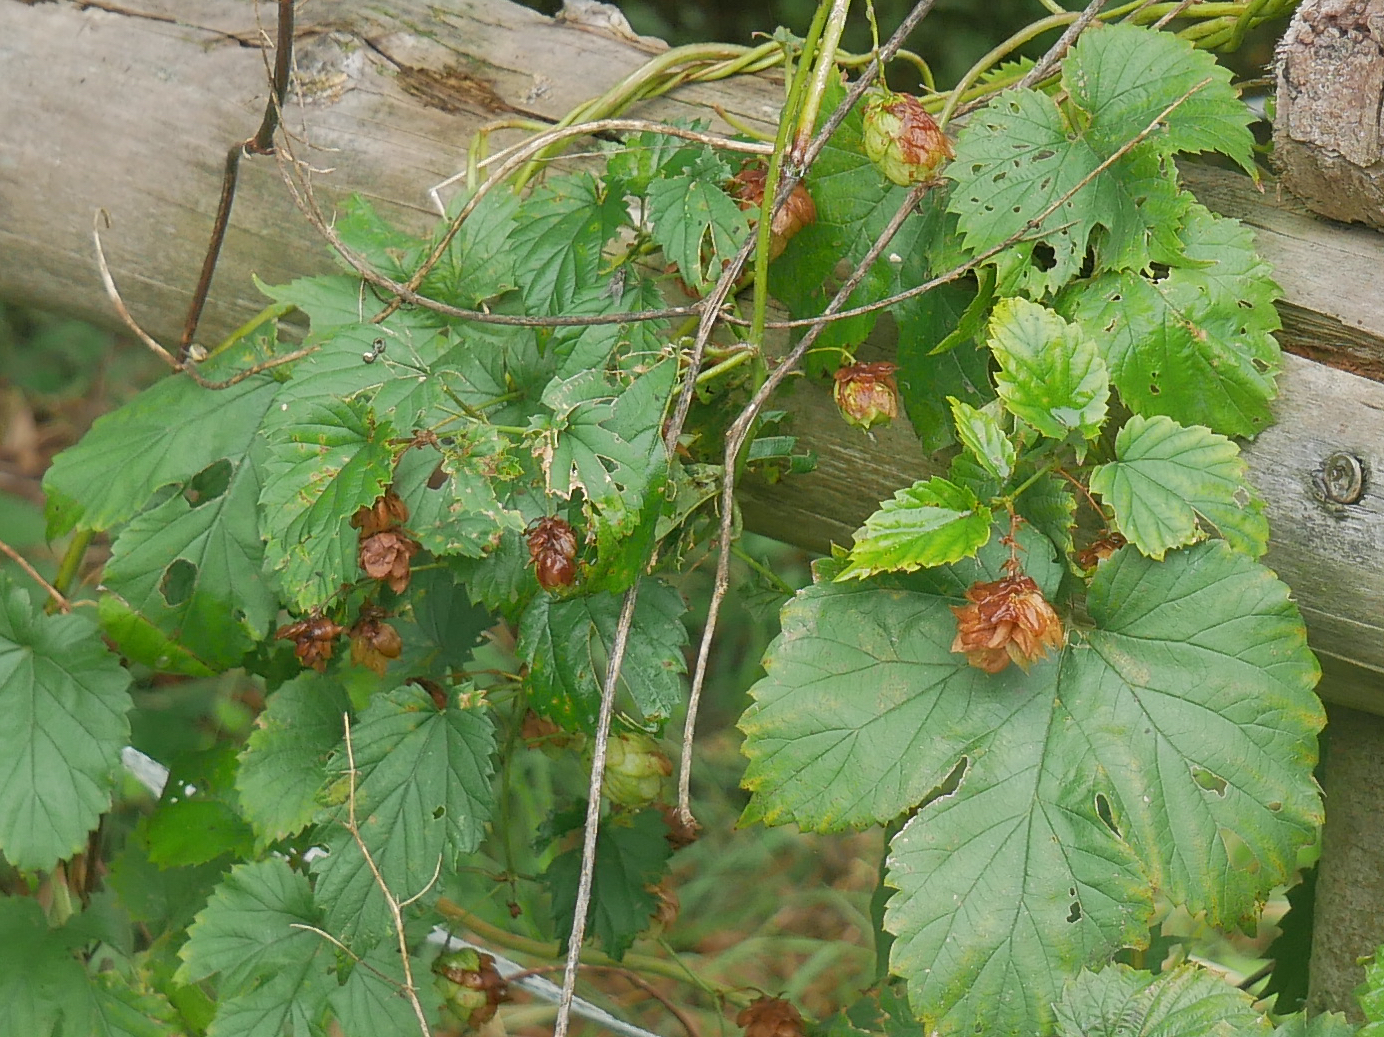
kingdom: Plantae
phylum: Tracheophyta
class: Magnoliopsida
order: Rosales
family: Cannabaceae
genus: Humulus
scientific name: Humulus lupulus
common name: Hop
